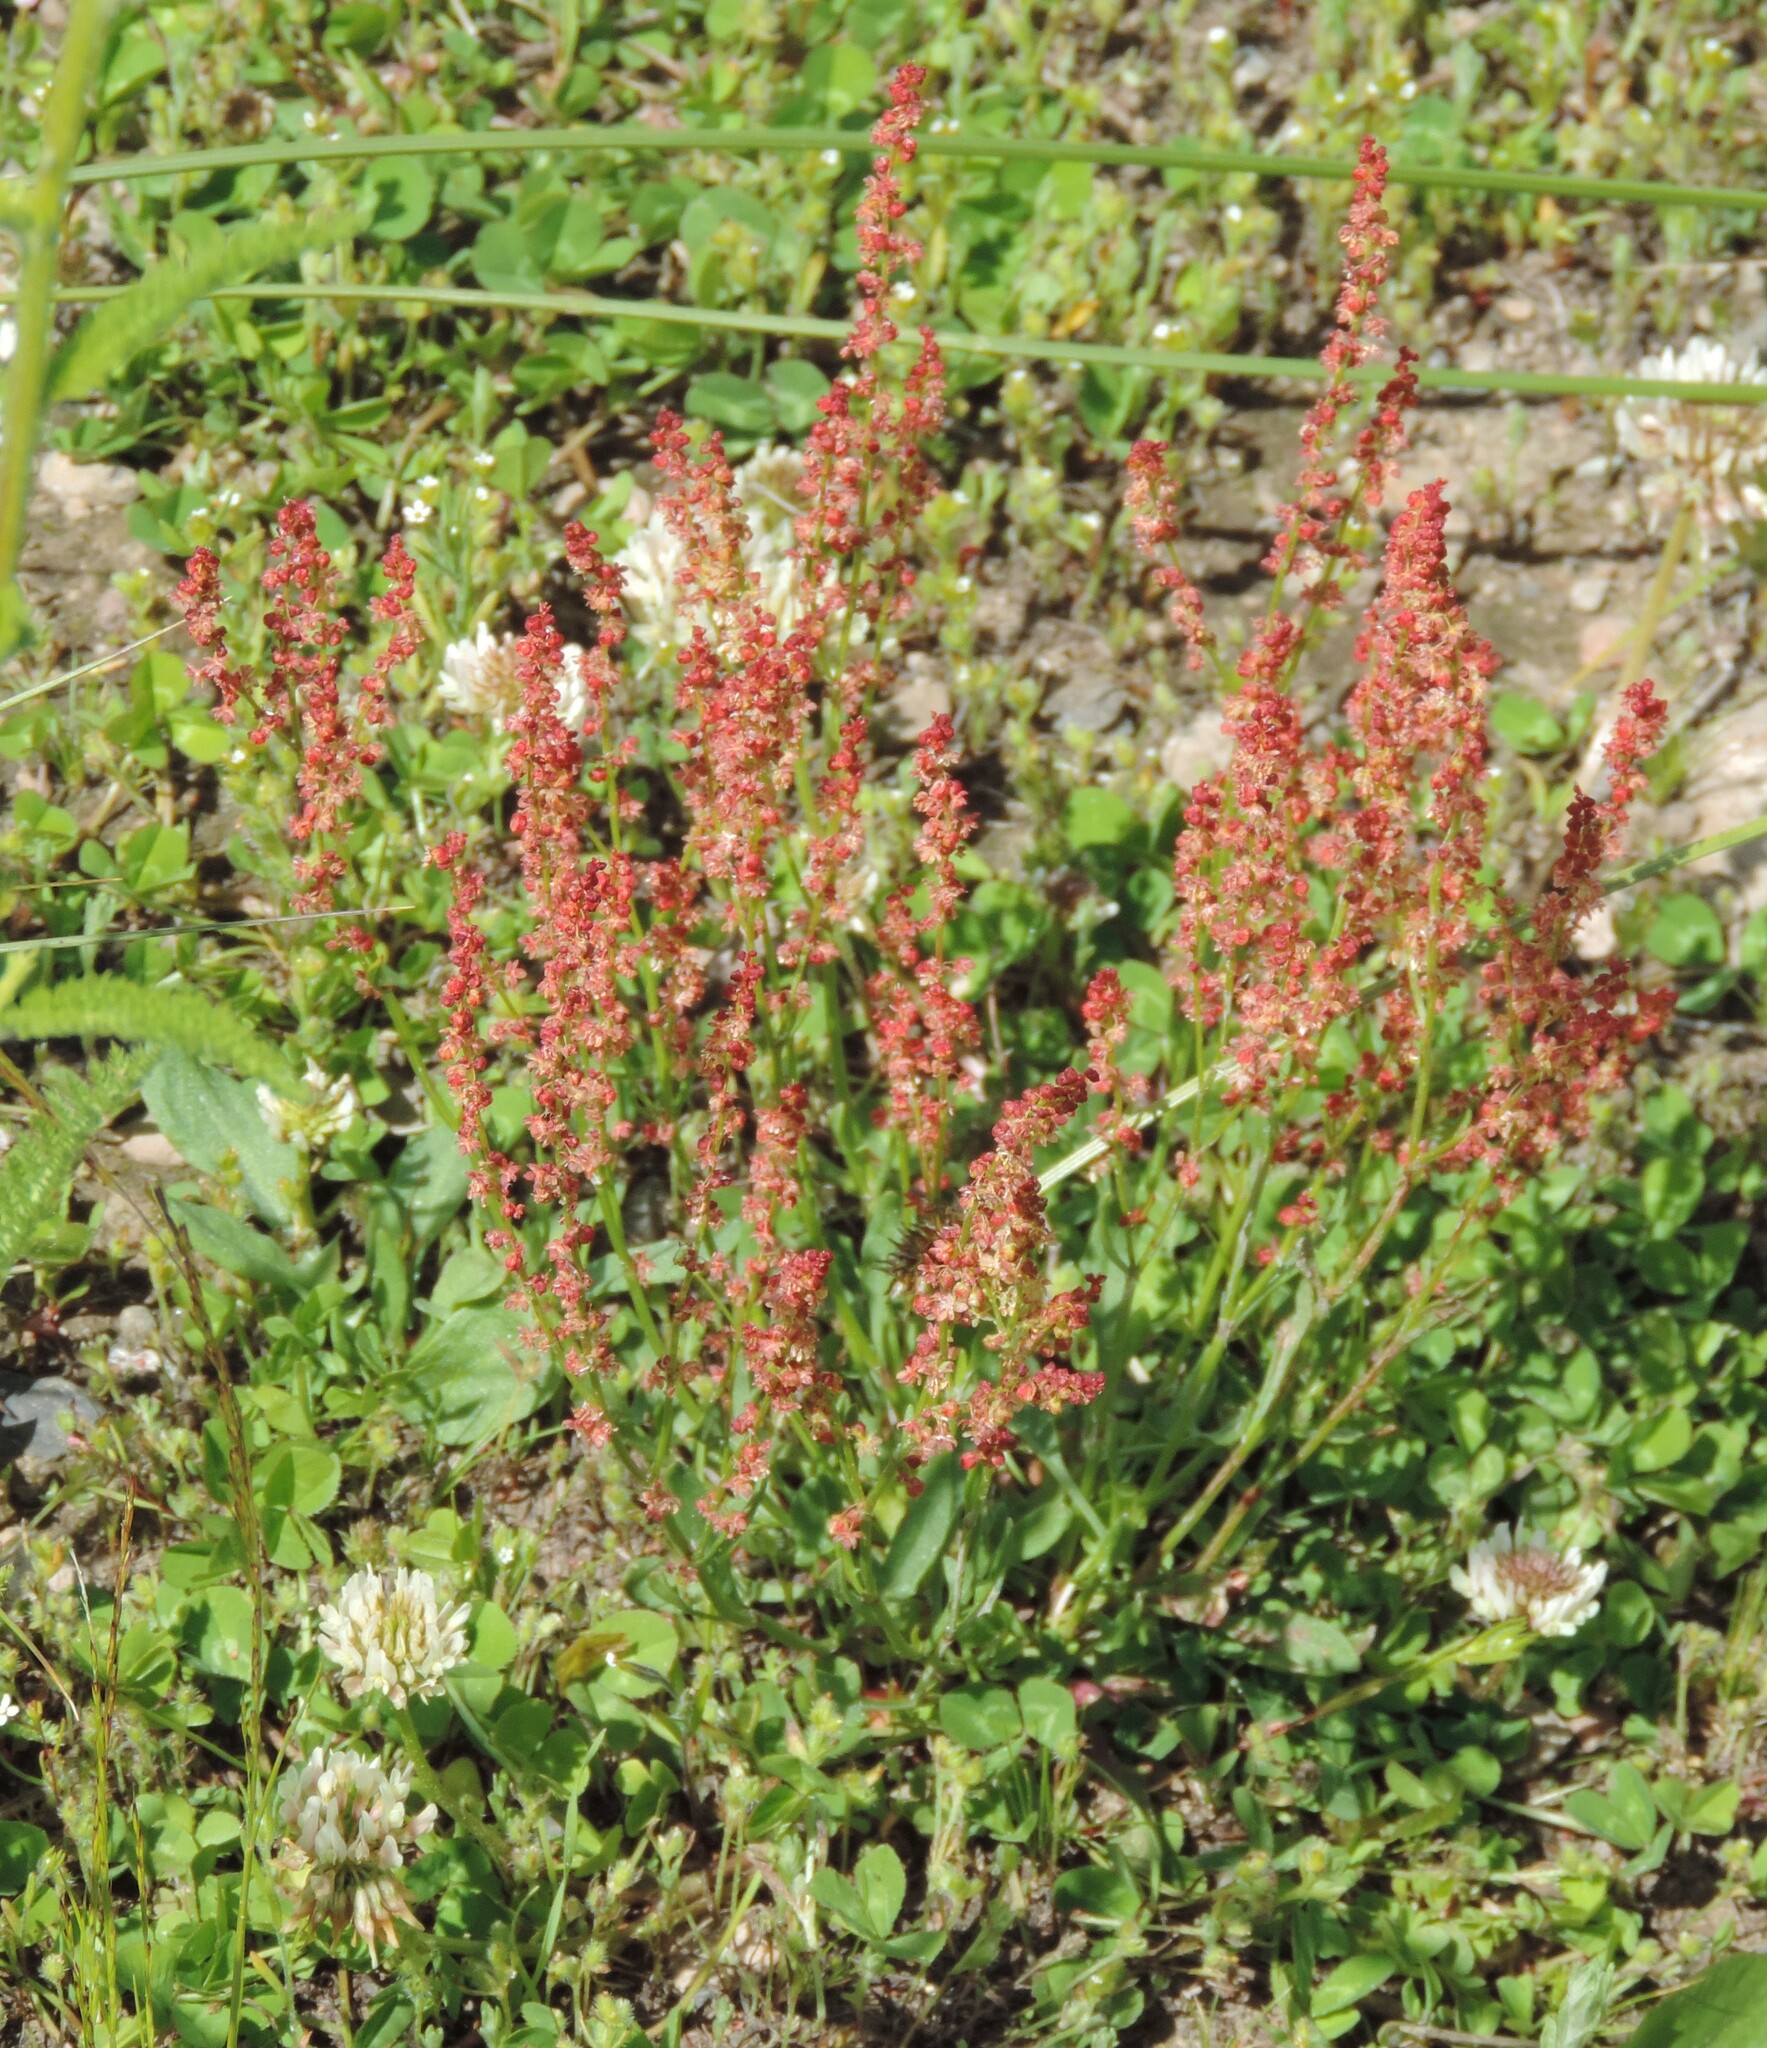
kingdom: Plantae
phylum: Tracheophyta
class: Magnoliopsida
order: Caryophyllales
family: Polygonaceae
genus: Rumex
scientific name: Rumex acetosella
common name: Common sheep sorrel
